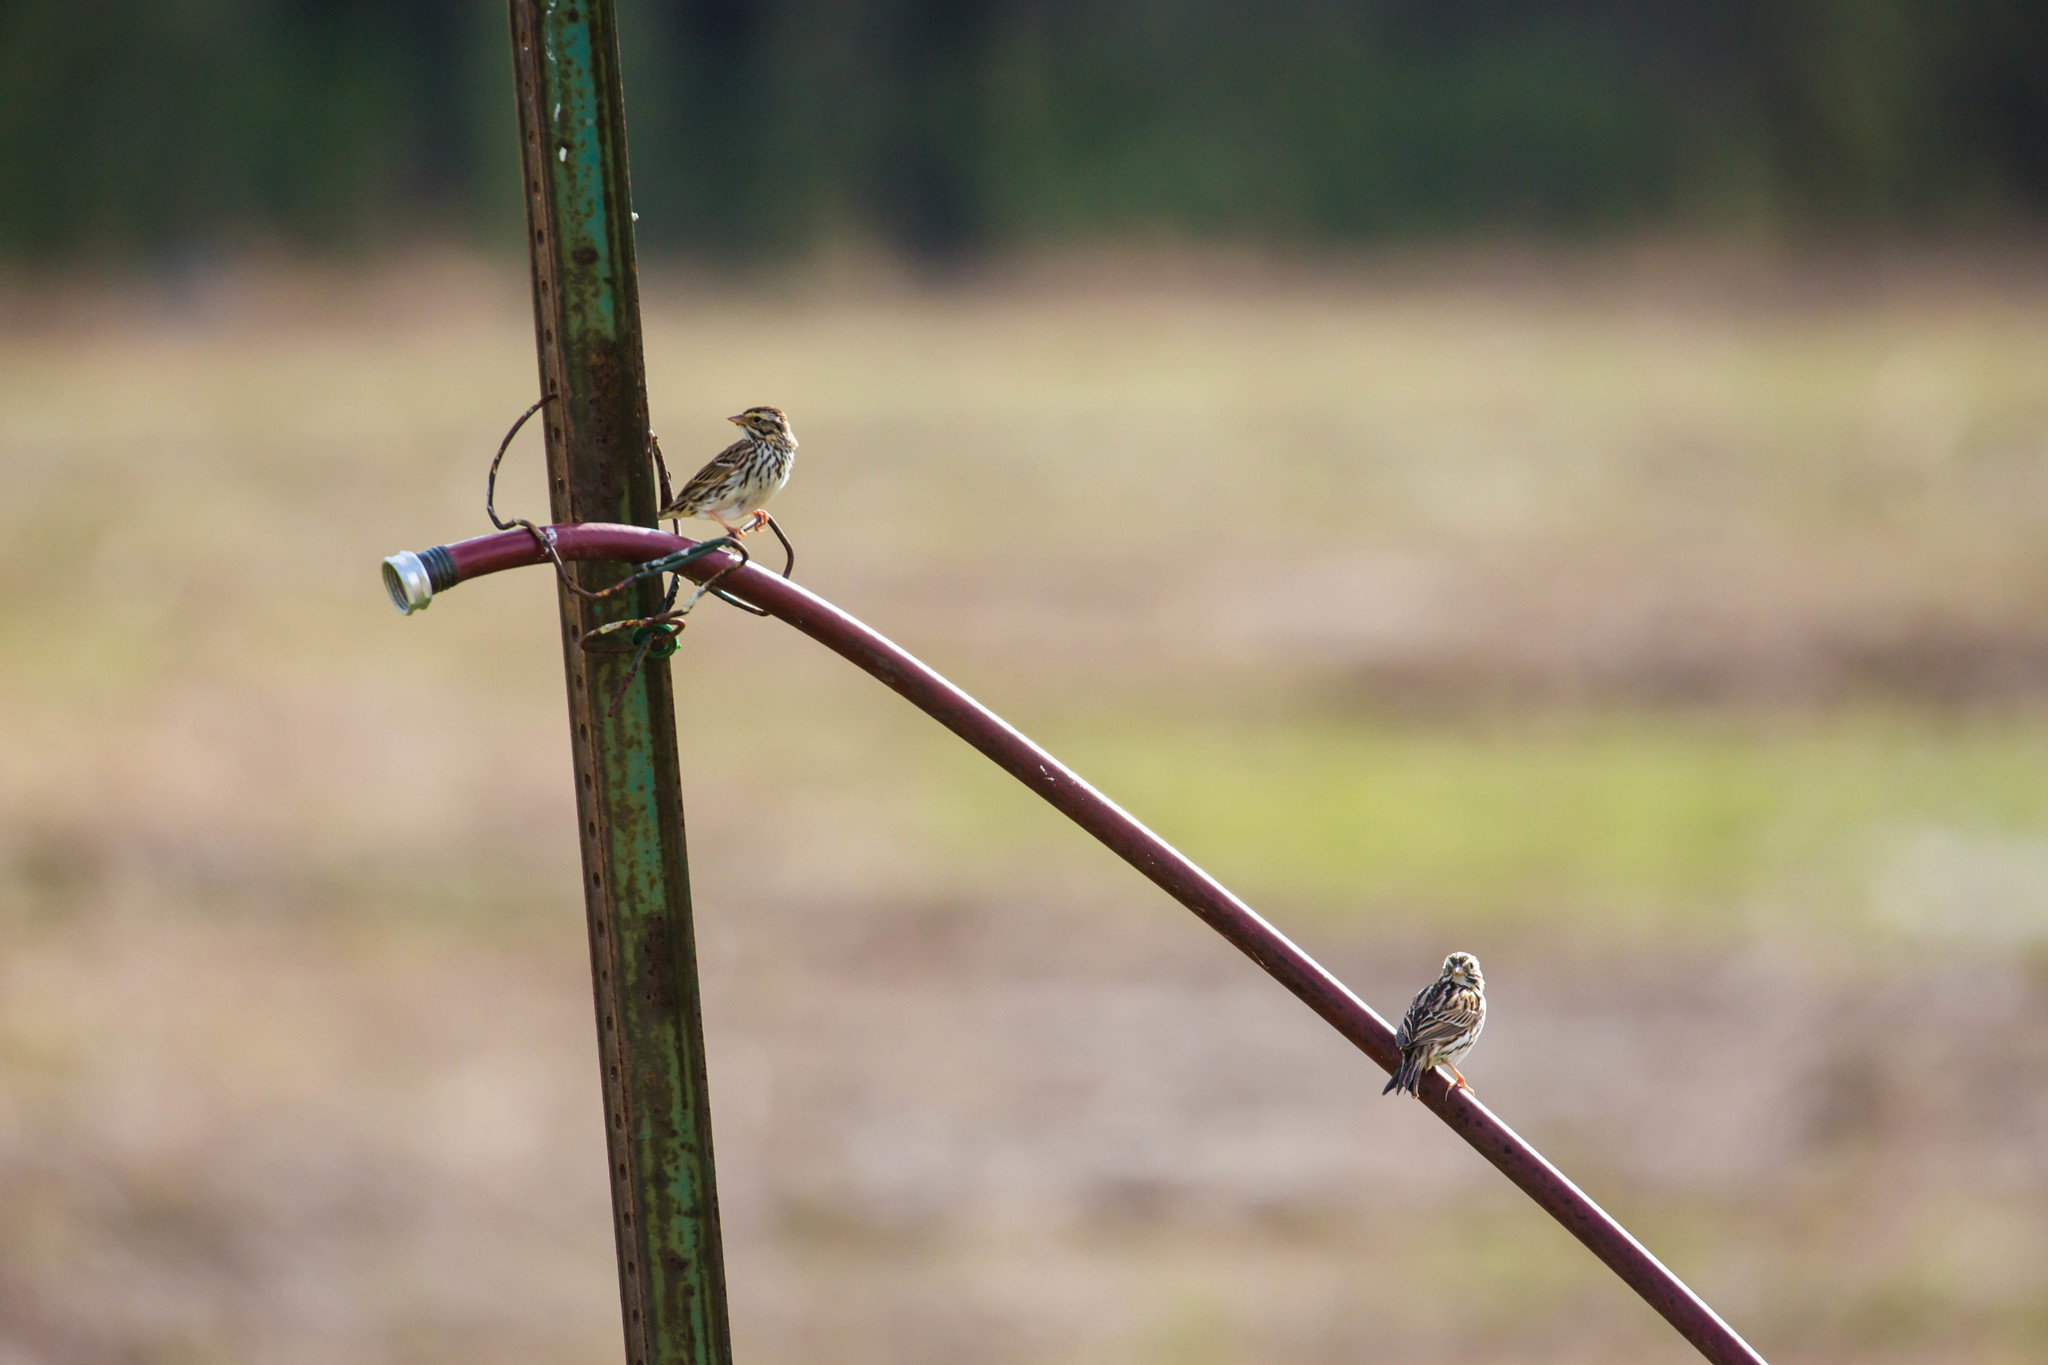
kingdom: Animalia
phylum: Chordata
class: Aves
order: Passeriformes
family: Passerellidae
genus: Passerculus
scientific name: Passerculus sandwichensis
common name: Savannah sparrow
